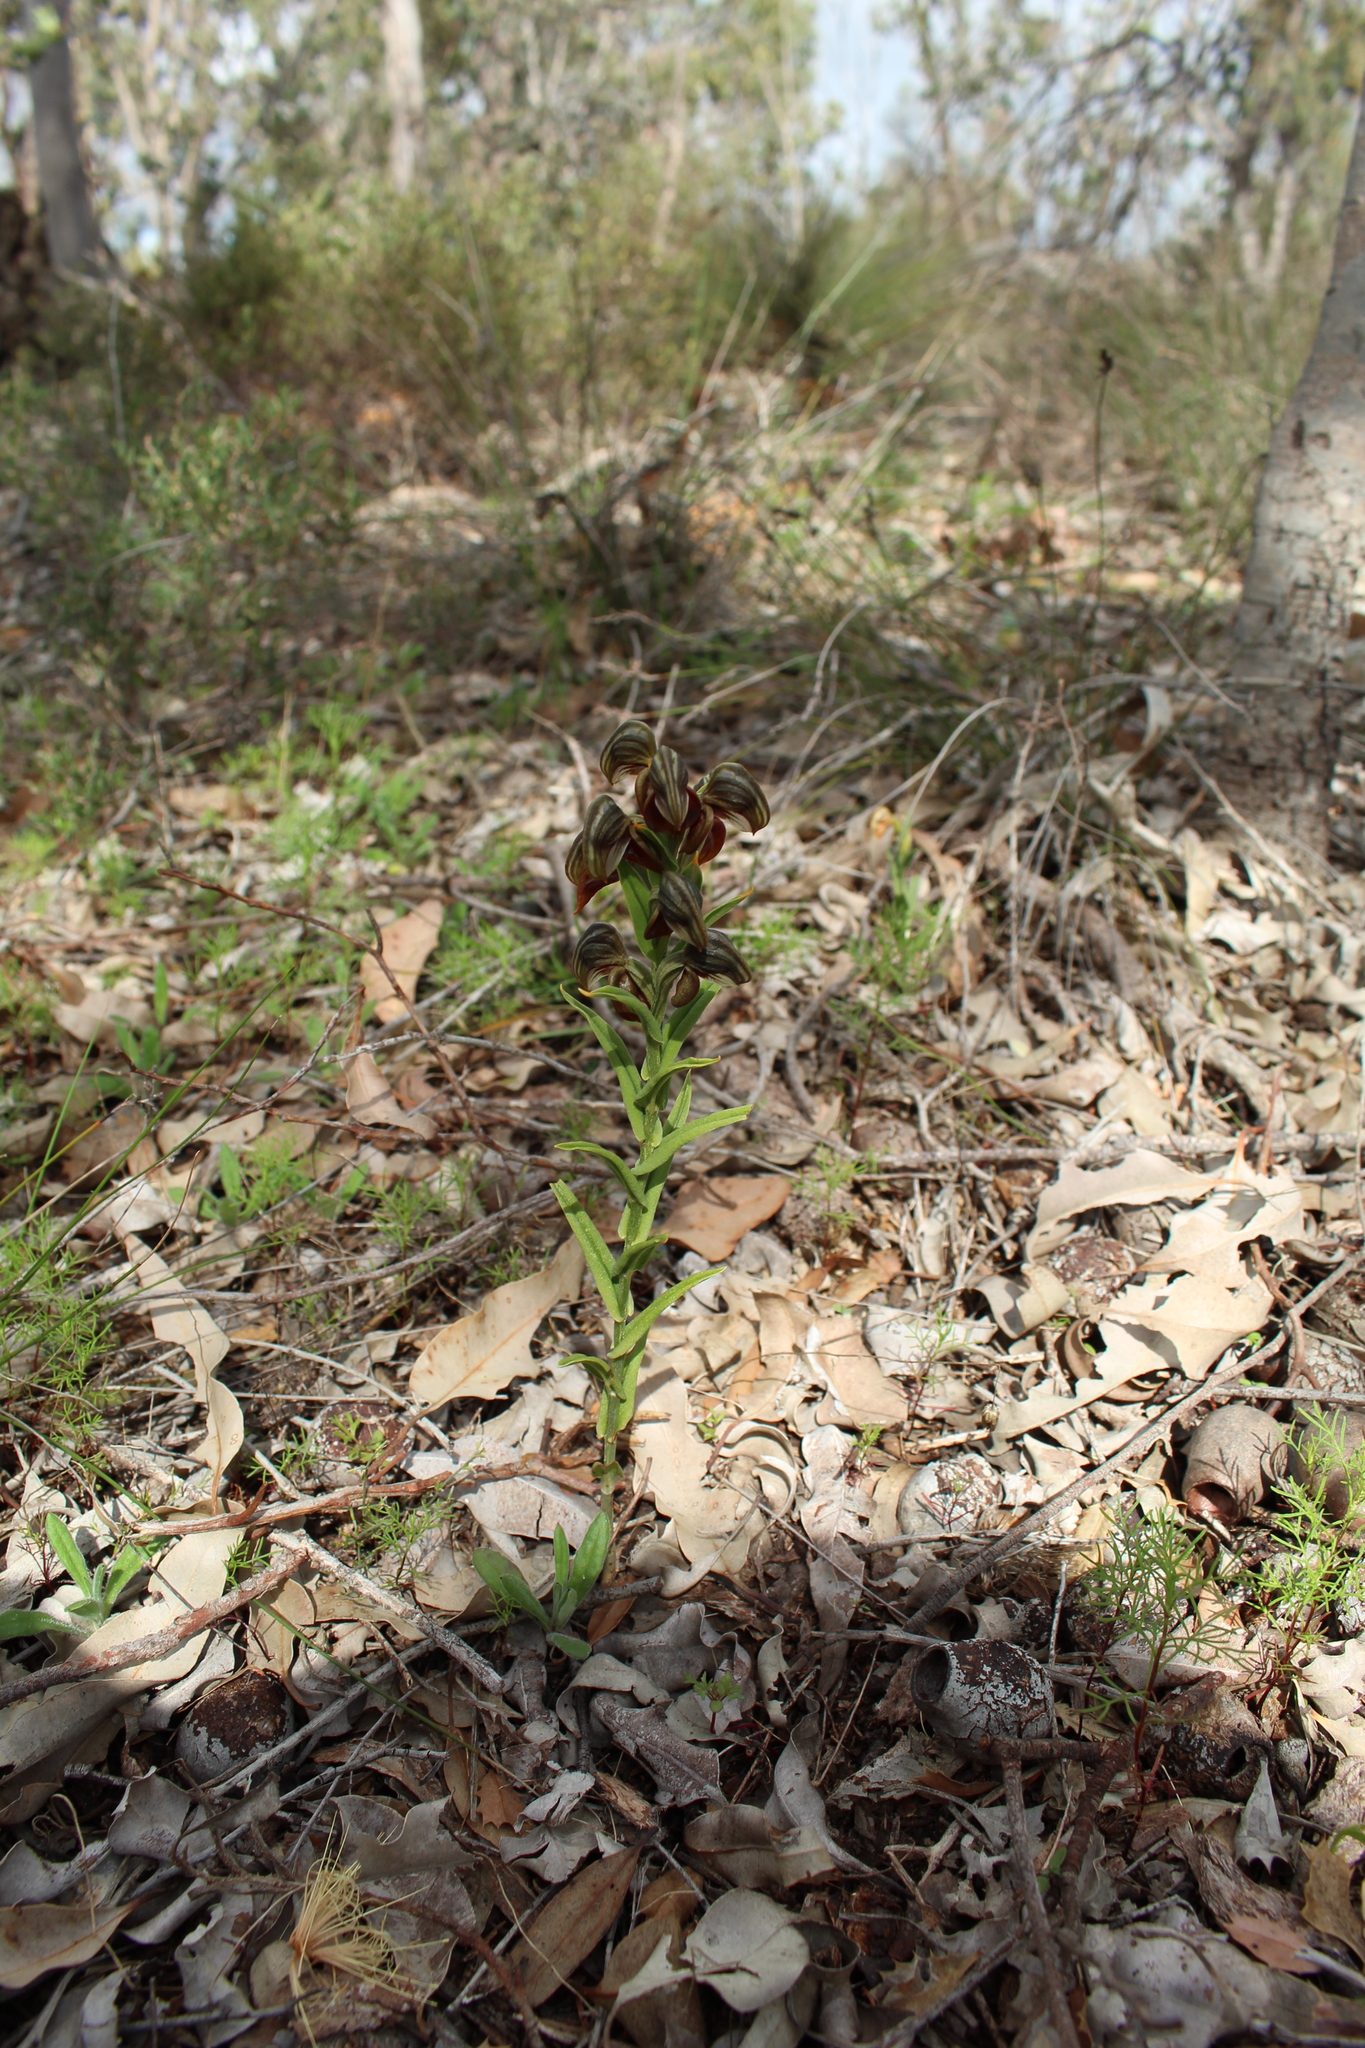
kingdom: Plantae
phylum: Tracheophyta
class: Liliopsida
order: Asparagales
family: Orchidaceae
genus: Pterostylis
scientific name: Pterostylis sanguinea
